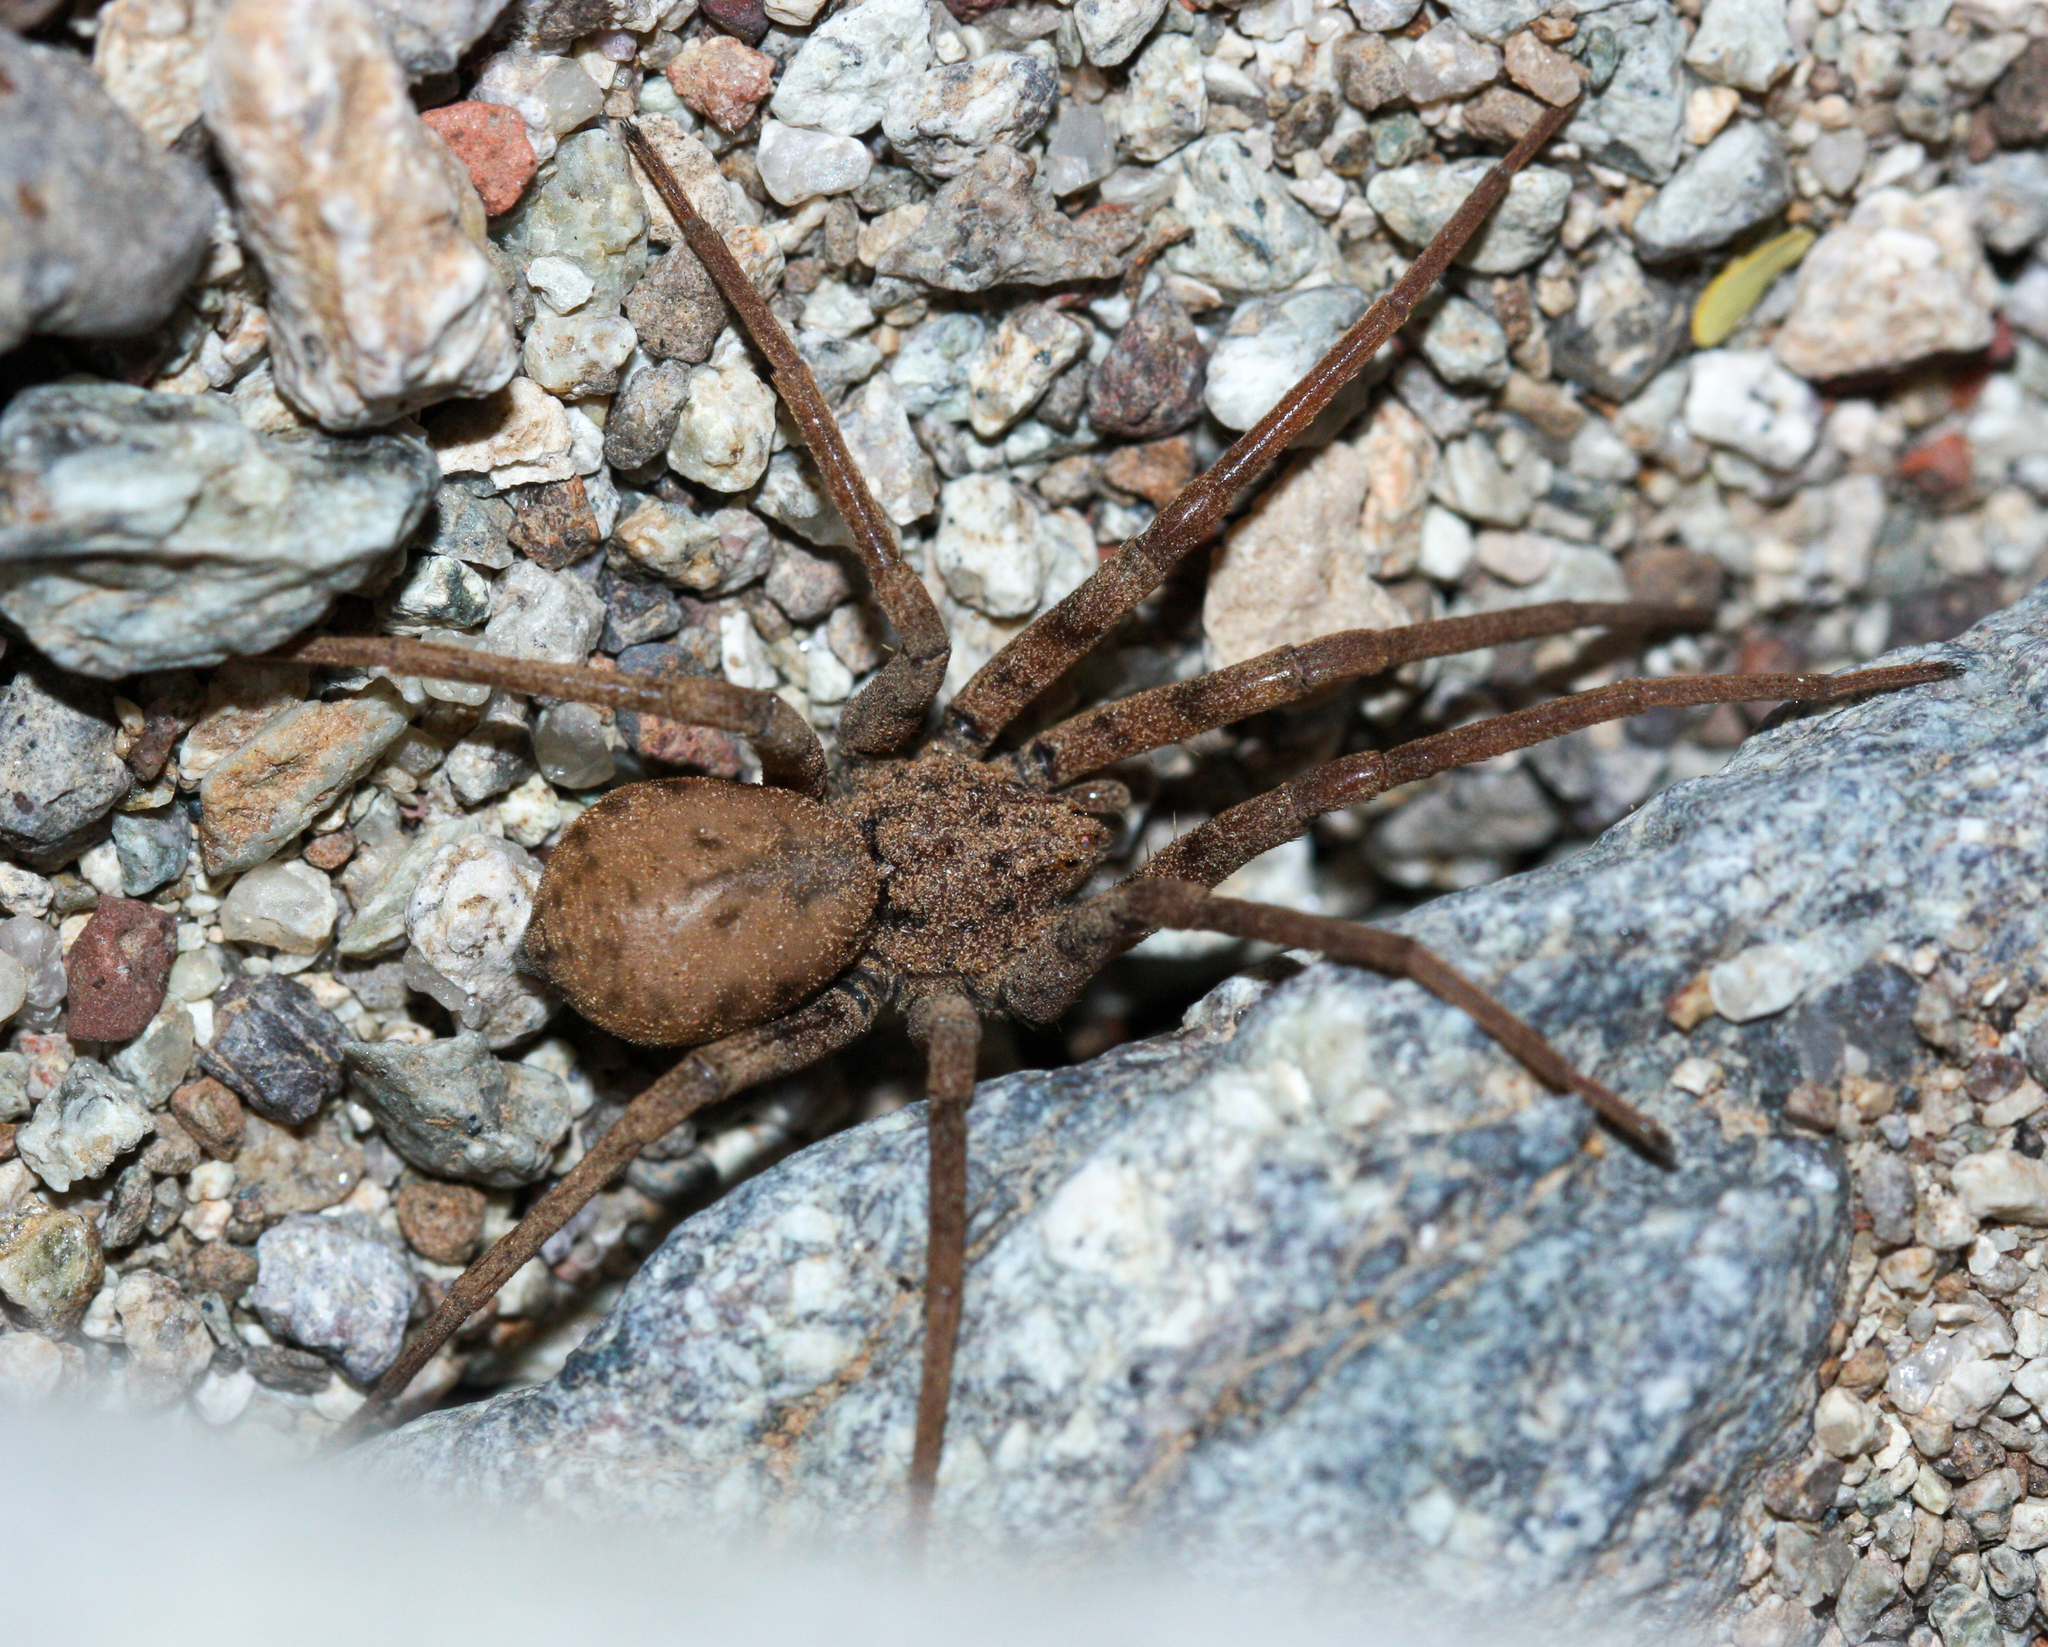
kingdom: Animalia
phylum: Arthropoda
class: Arachnida
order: Araneae
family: Homalonychidae
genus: Homalonychus
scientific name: Homalonychus selenopoides
